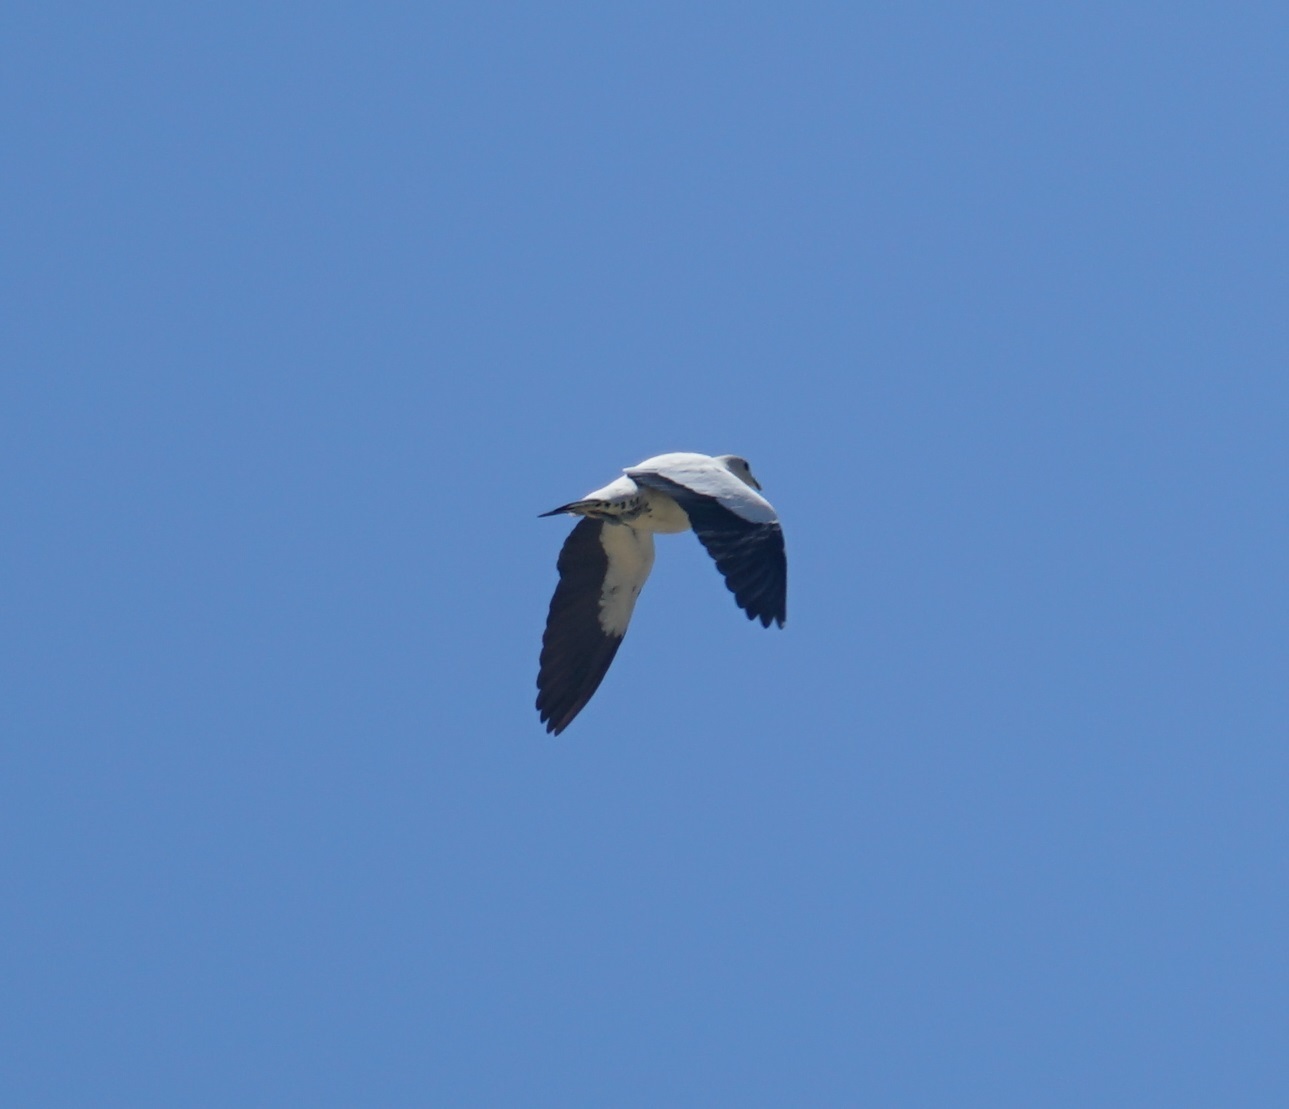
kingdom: Animalia
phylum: Chordata
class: Aves
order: Columbiformes
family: Columbidae
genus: Ducula
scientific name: Ducula spilorrhoa
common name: Torresian imperial pigeon
